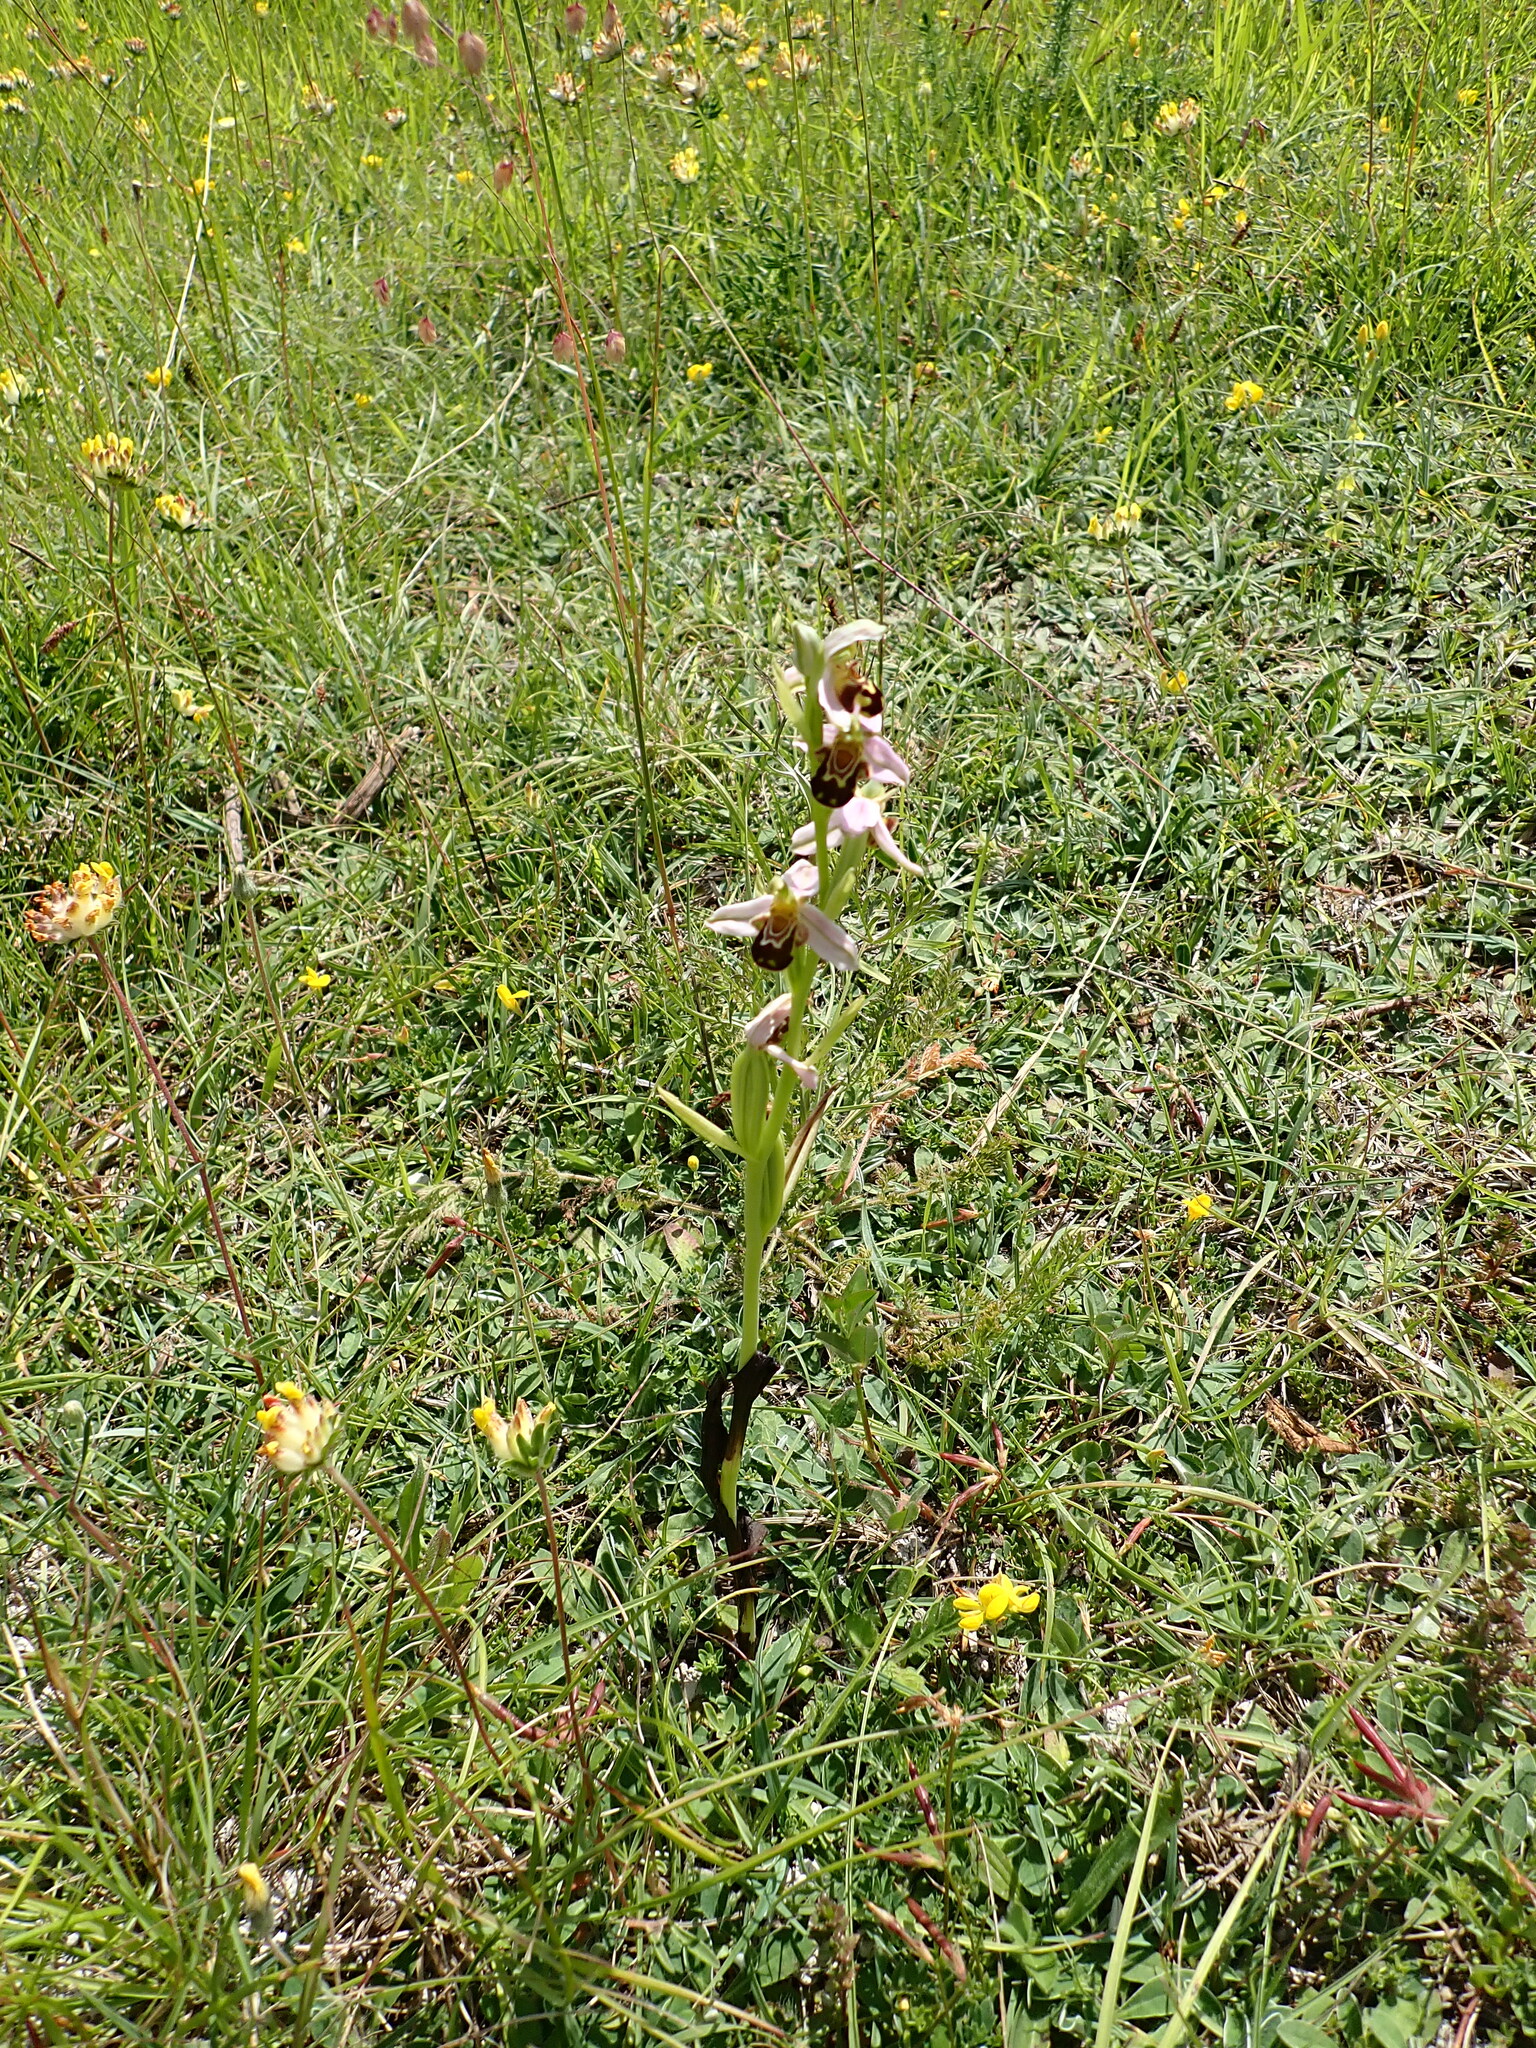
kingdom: Plantae
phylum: Tracheophyta
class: Liliopsida
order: Asparagales
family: Orchidaceae
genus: Ophrys
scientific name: Ophrys apifera
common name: Bee orchid
